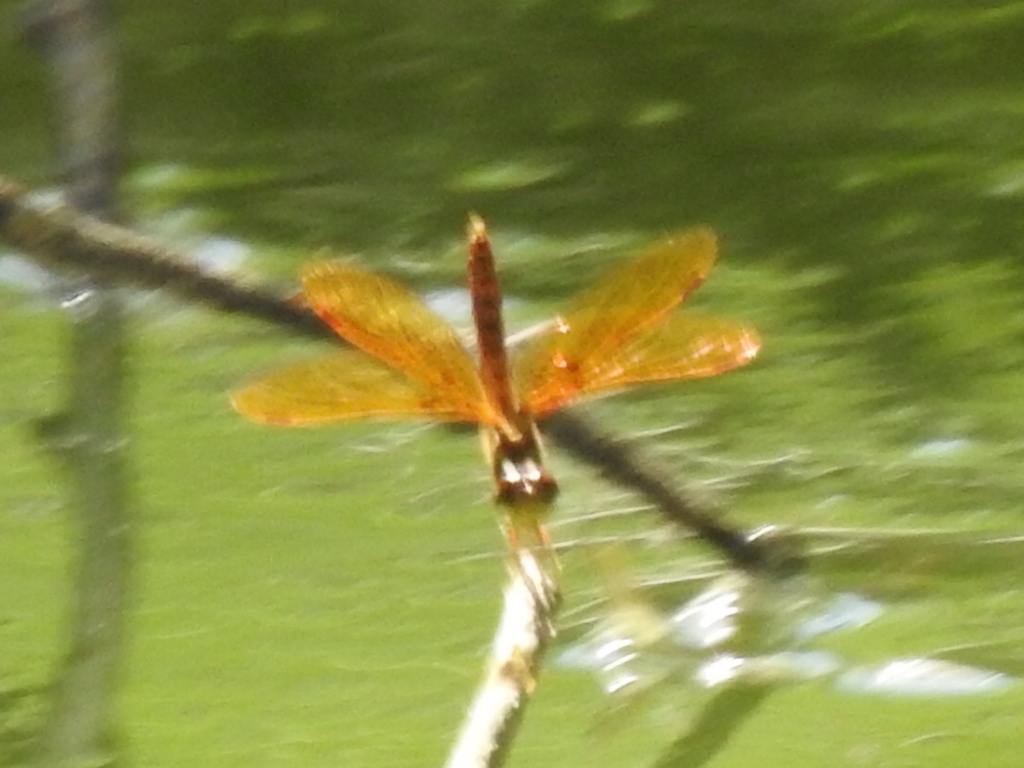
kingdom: Animalia
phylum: Arthropoda
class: Insecta
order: Odonata
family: Libellulidae
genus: Perithemis
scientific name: Perithemis tenera
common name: Eastern amberwing
